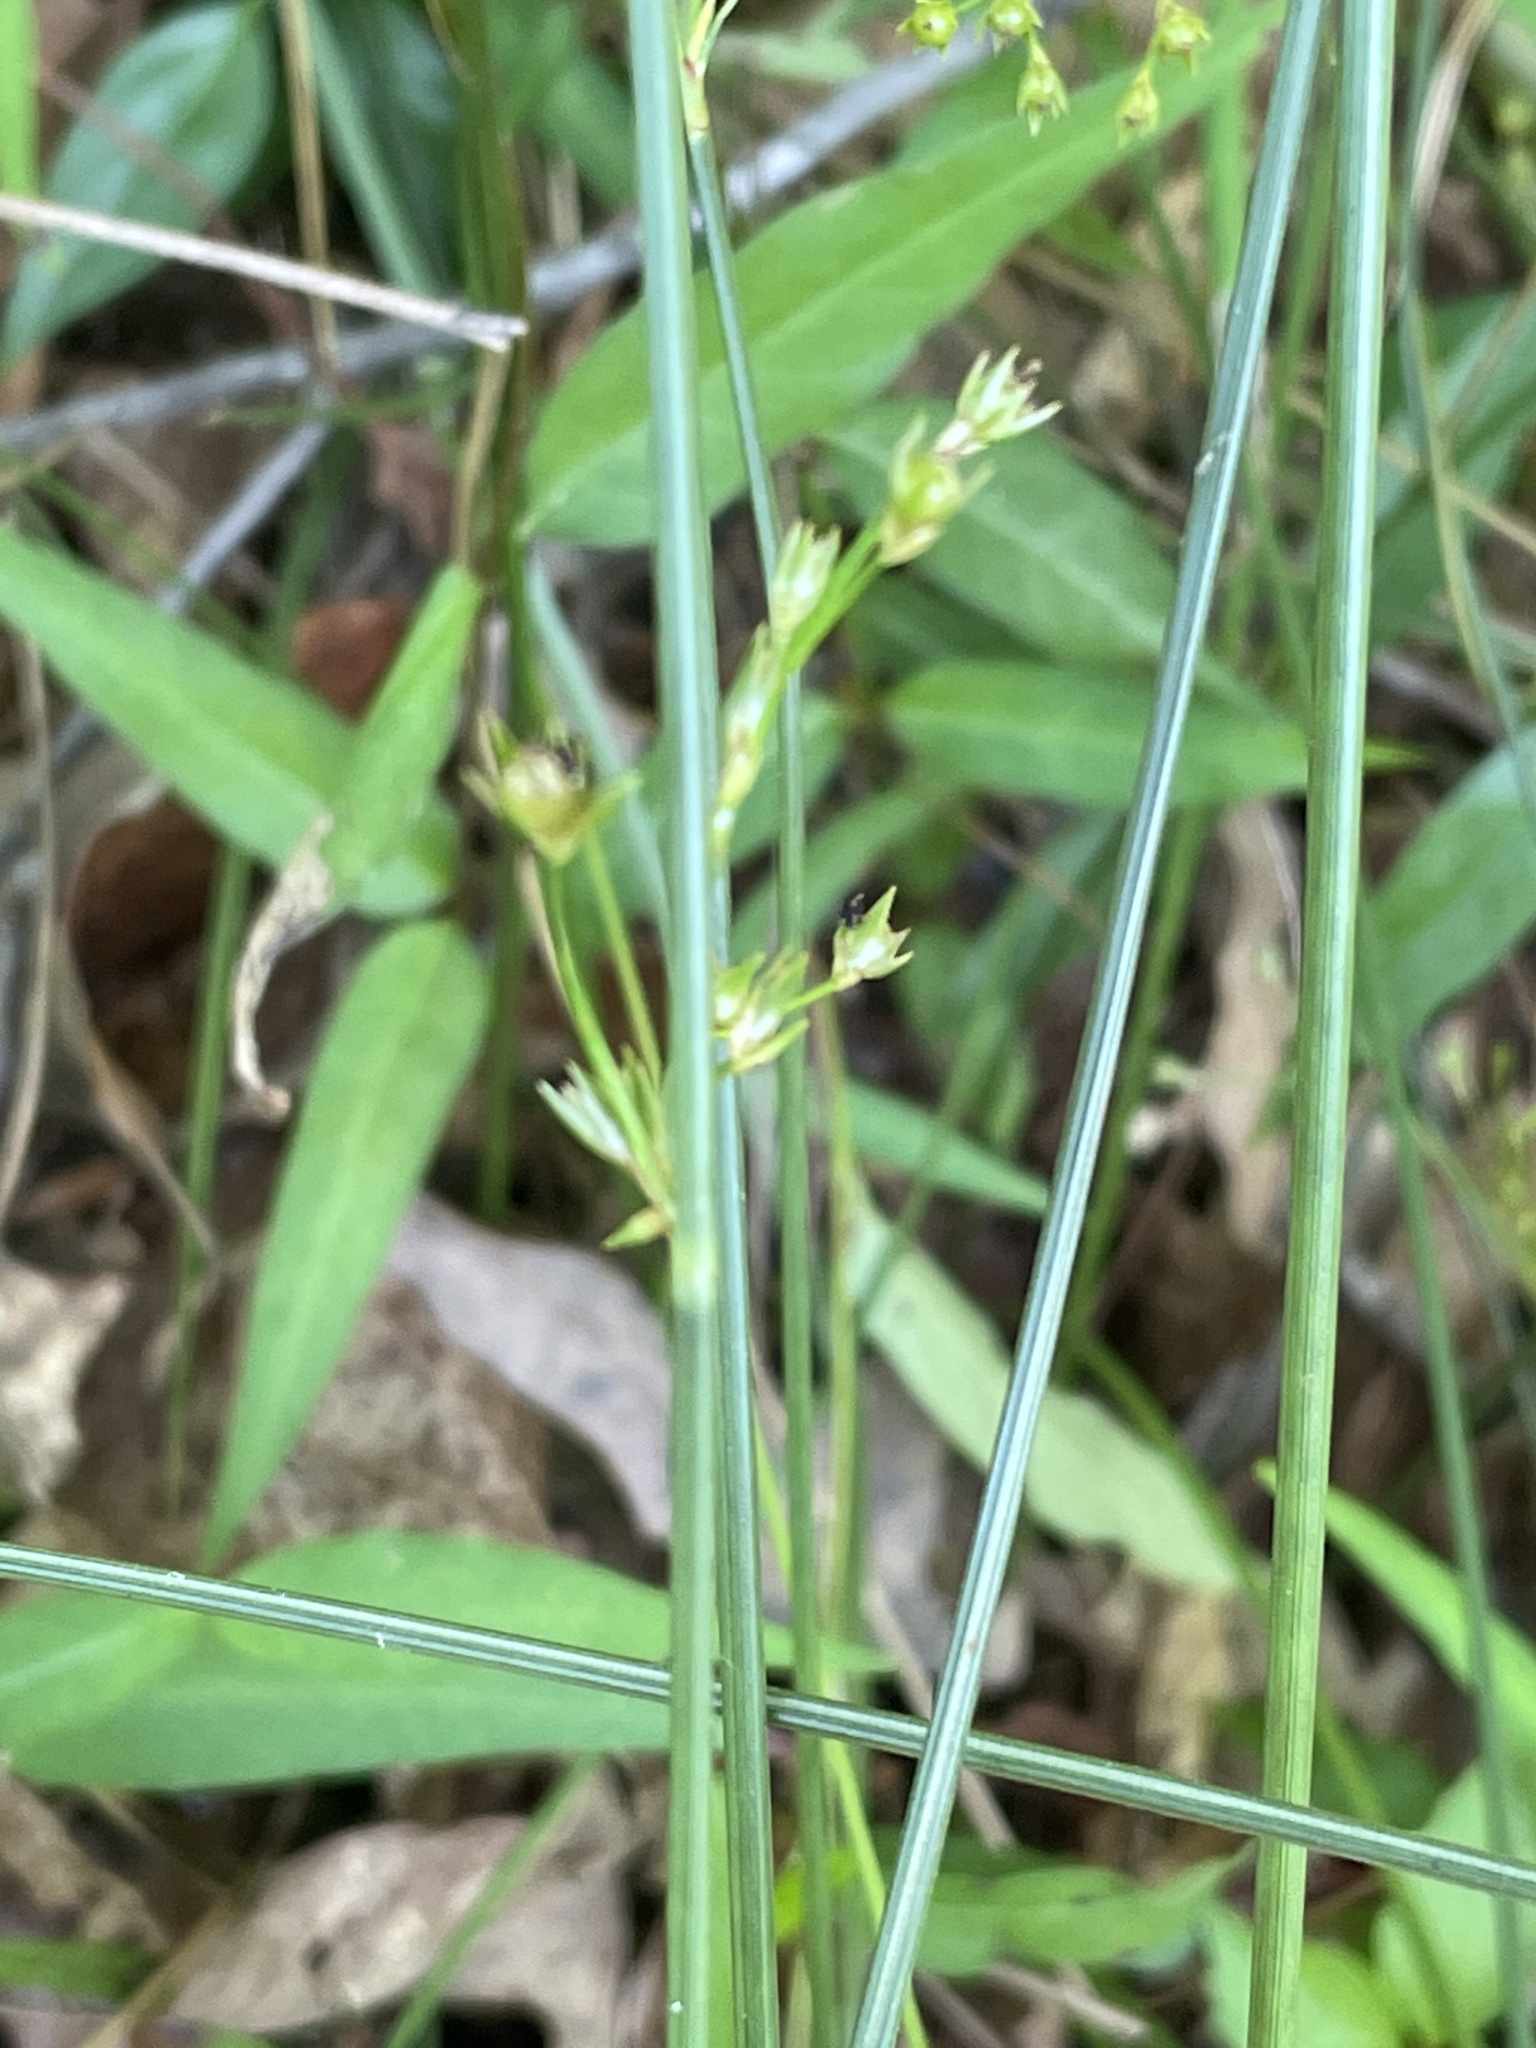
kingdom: Plantae
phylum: Tracheophyta
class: Liliopsida
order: Poales
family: Juncaceae
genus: Juncus
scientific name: Juncus coriaceus
